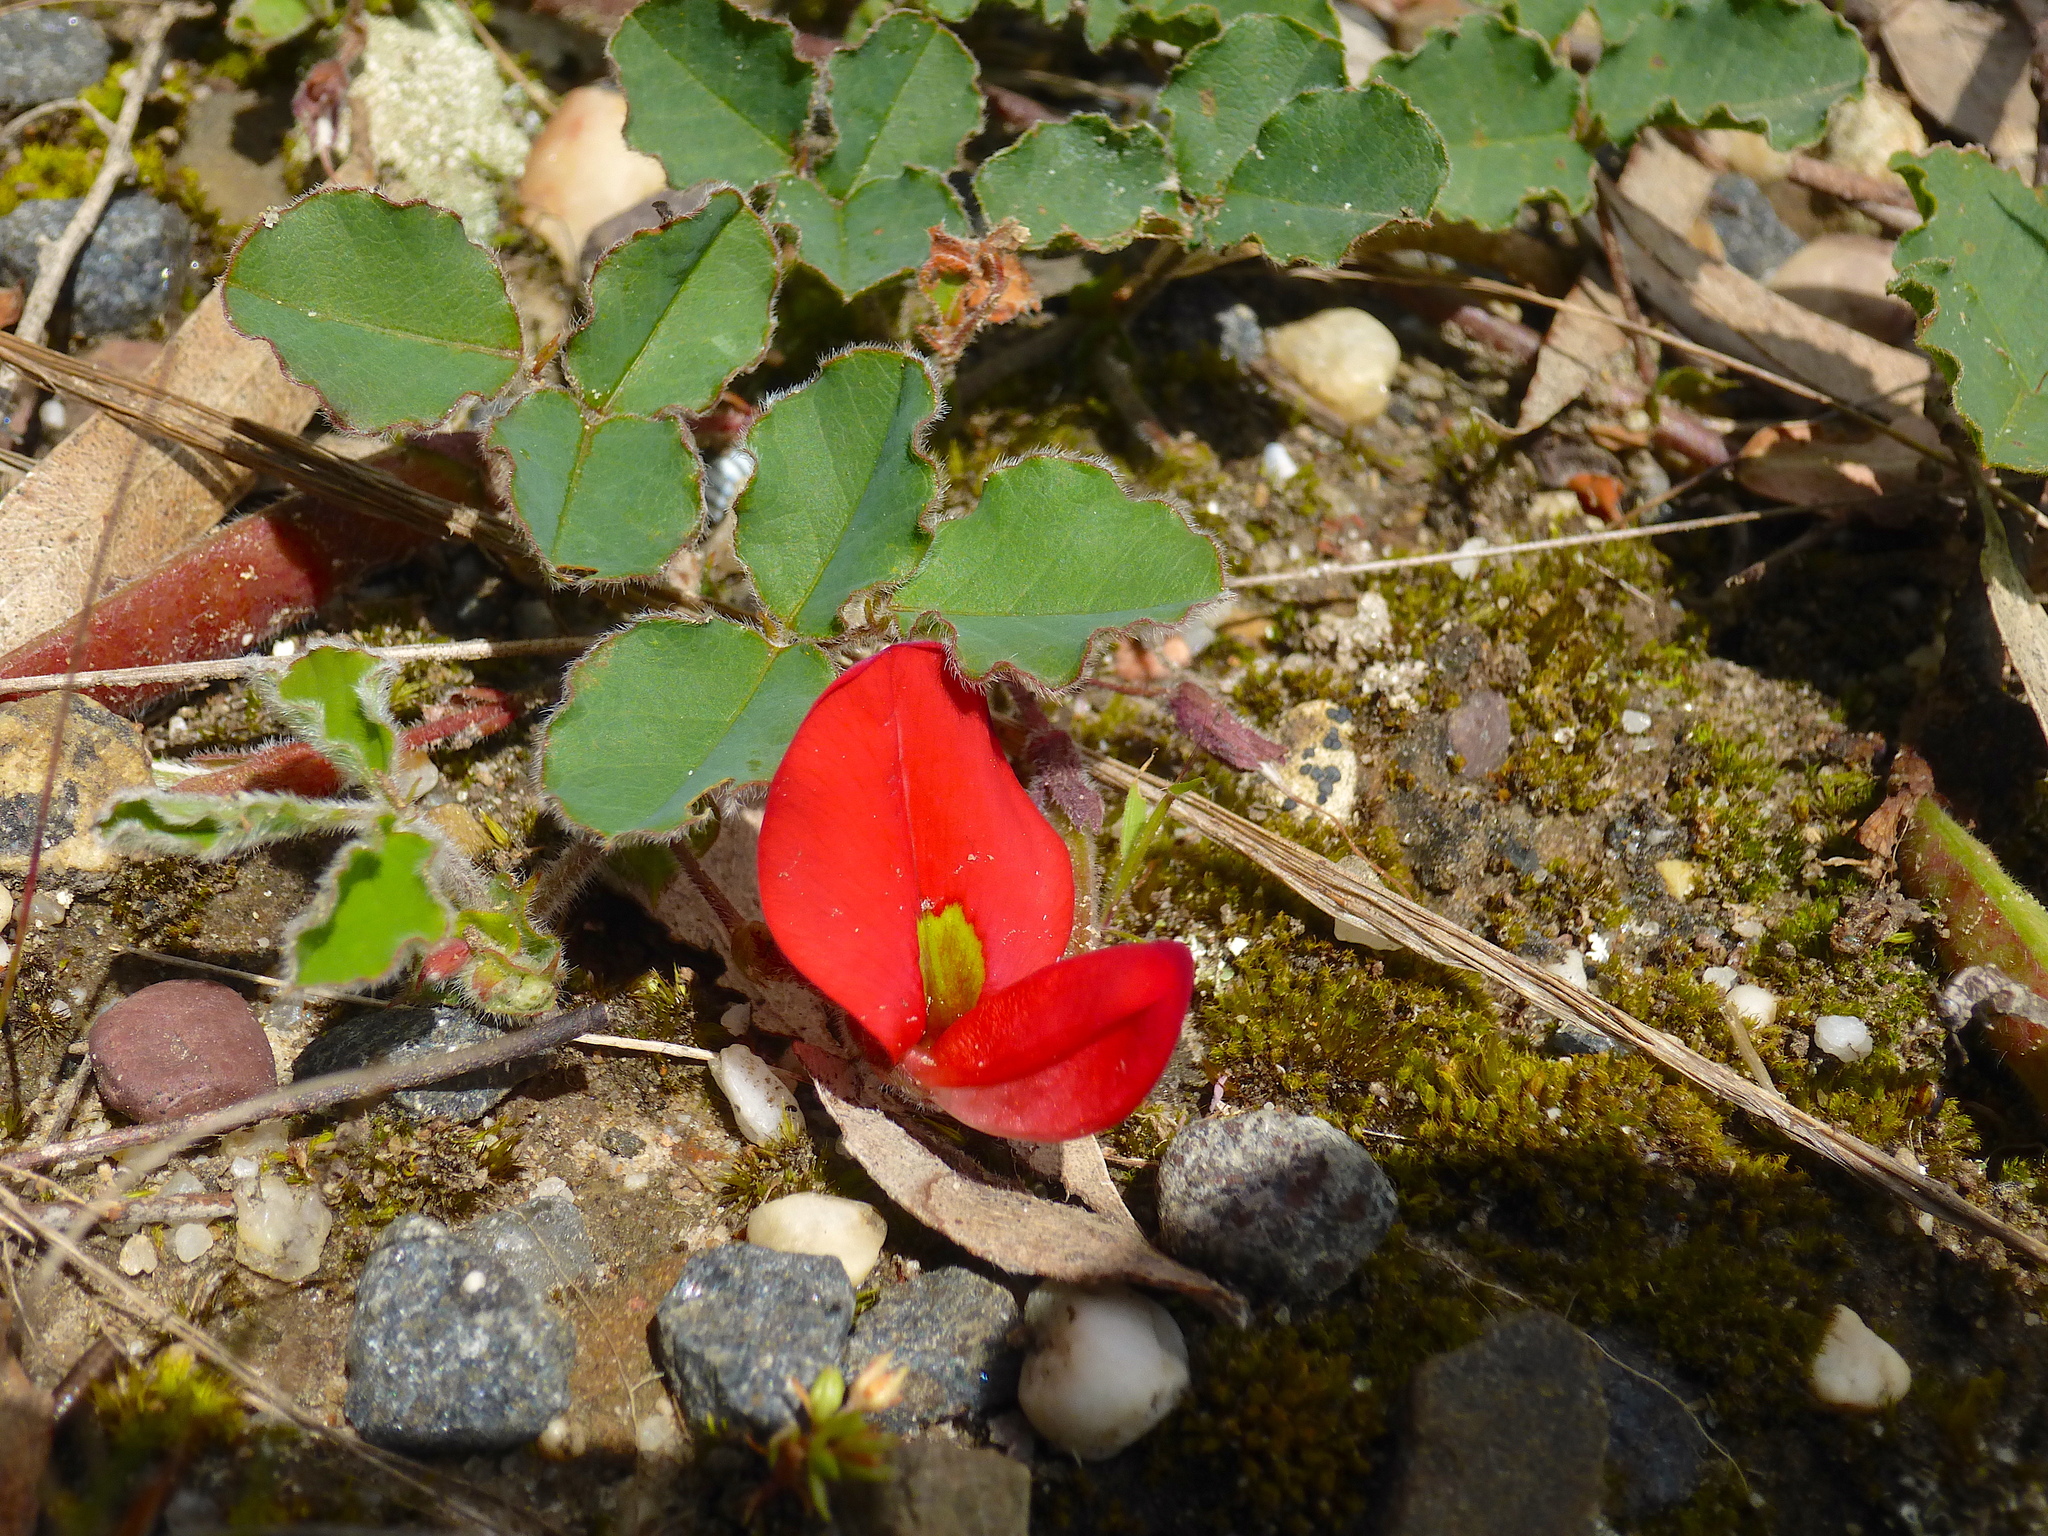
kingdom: Plantae
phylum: Tracheophyta
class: Magnoliopsida
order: Fabales
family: Fabaceae
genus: Kennedia
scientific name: Kennedia prostrata
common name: Running-postman
